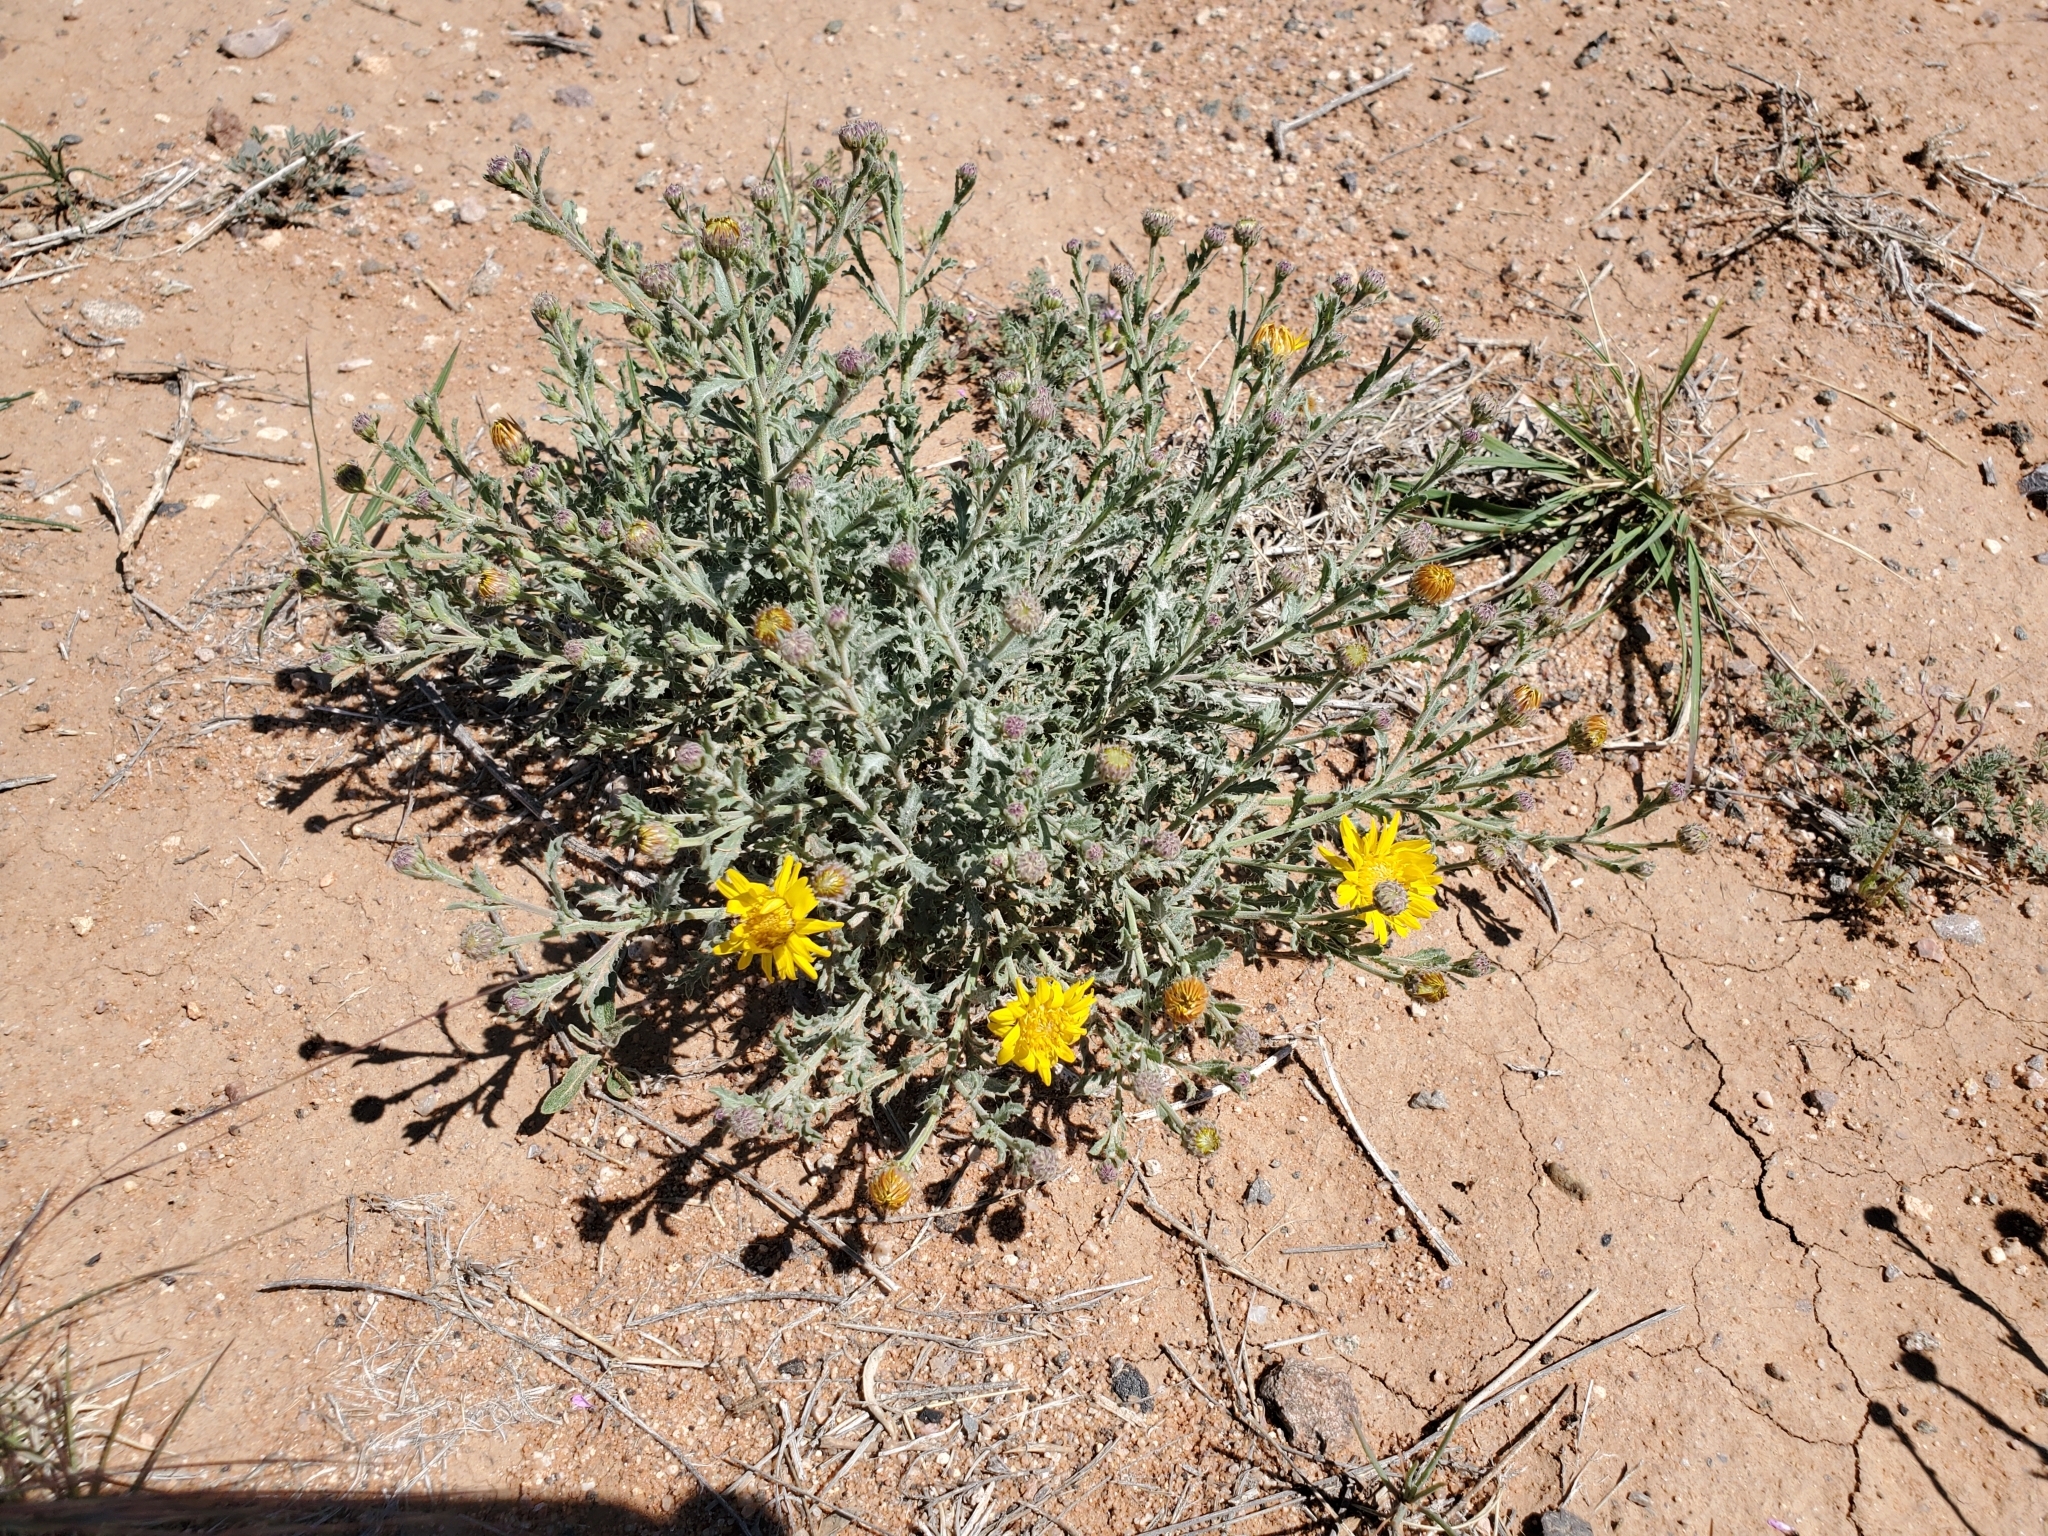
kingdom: Plantae
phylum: Tracheophyta
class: Magnoliopsida
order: Asterales
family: Asteraceae
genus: Xanthisma
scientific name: Xanthisma spinulosum
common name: Spiny goldenweed
